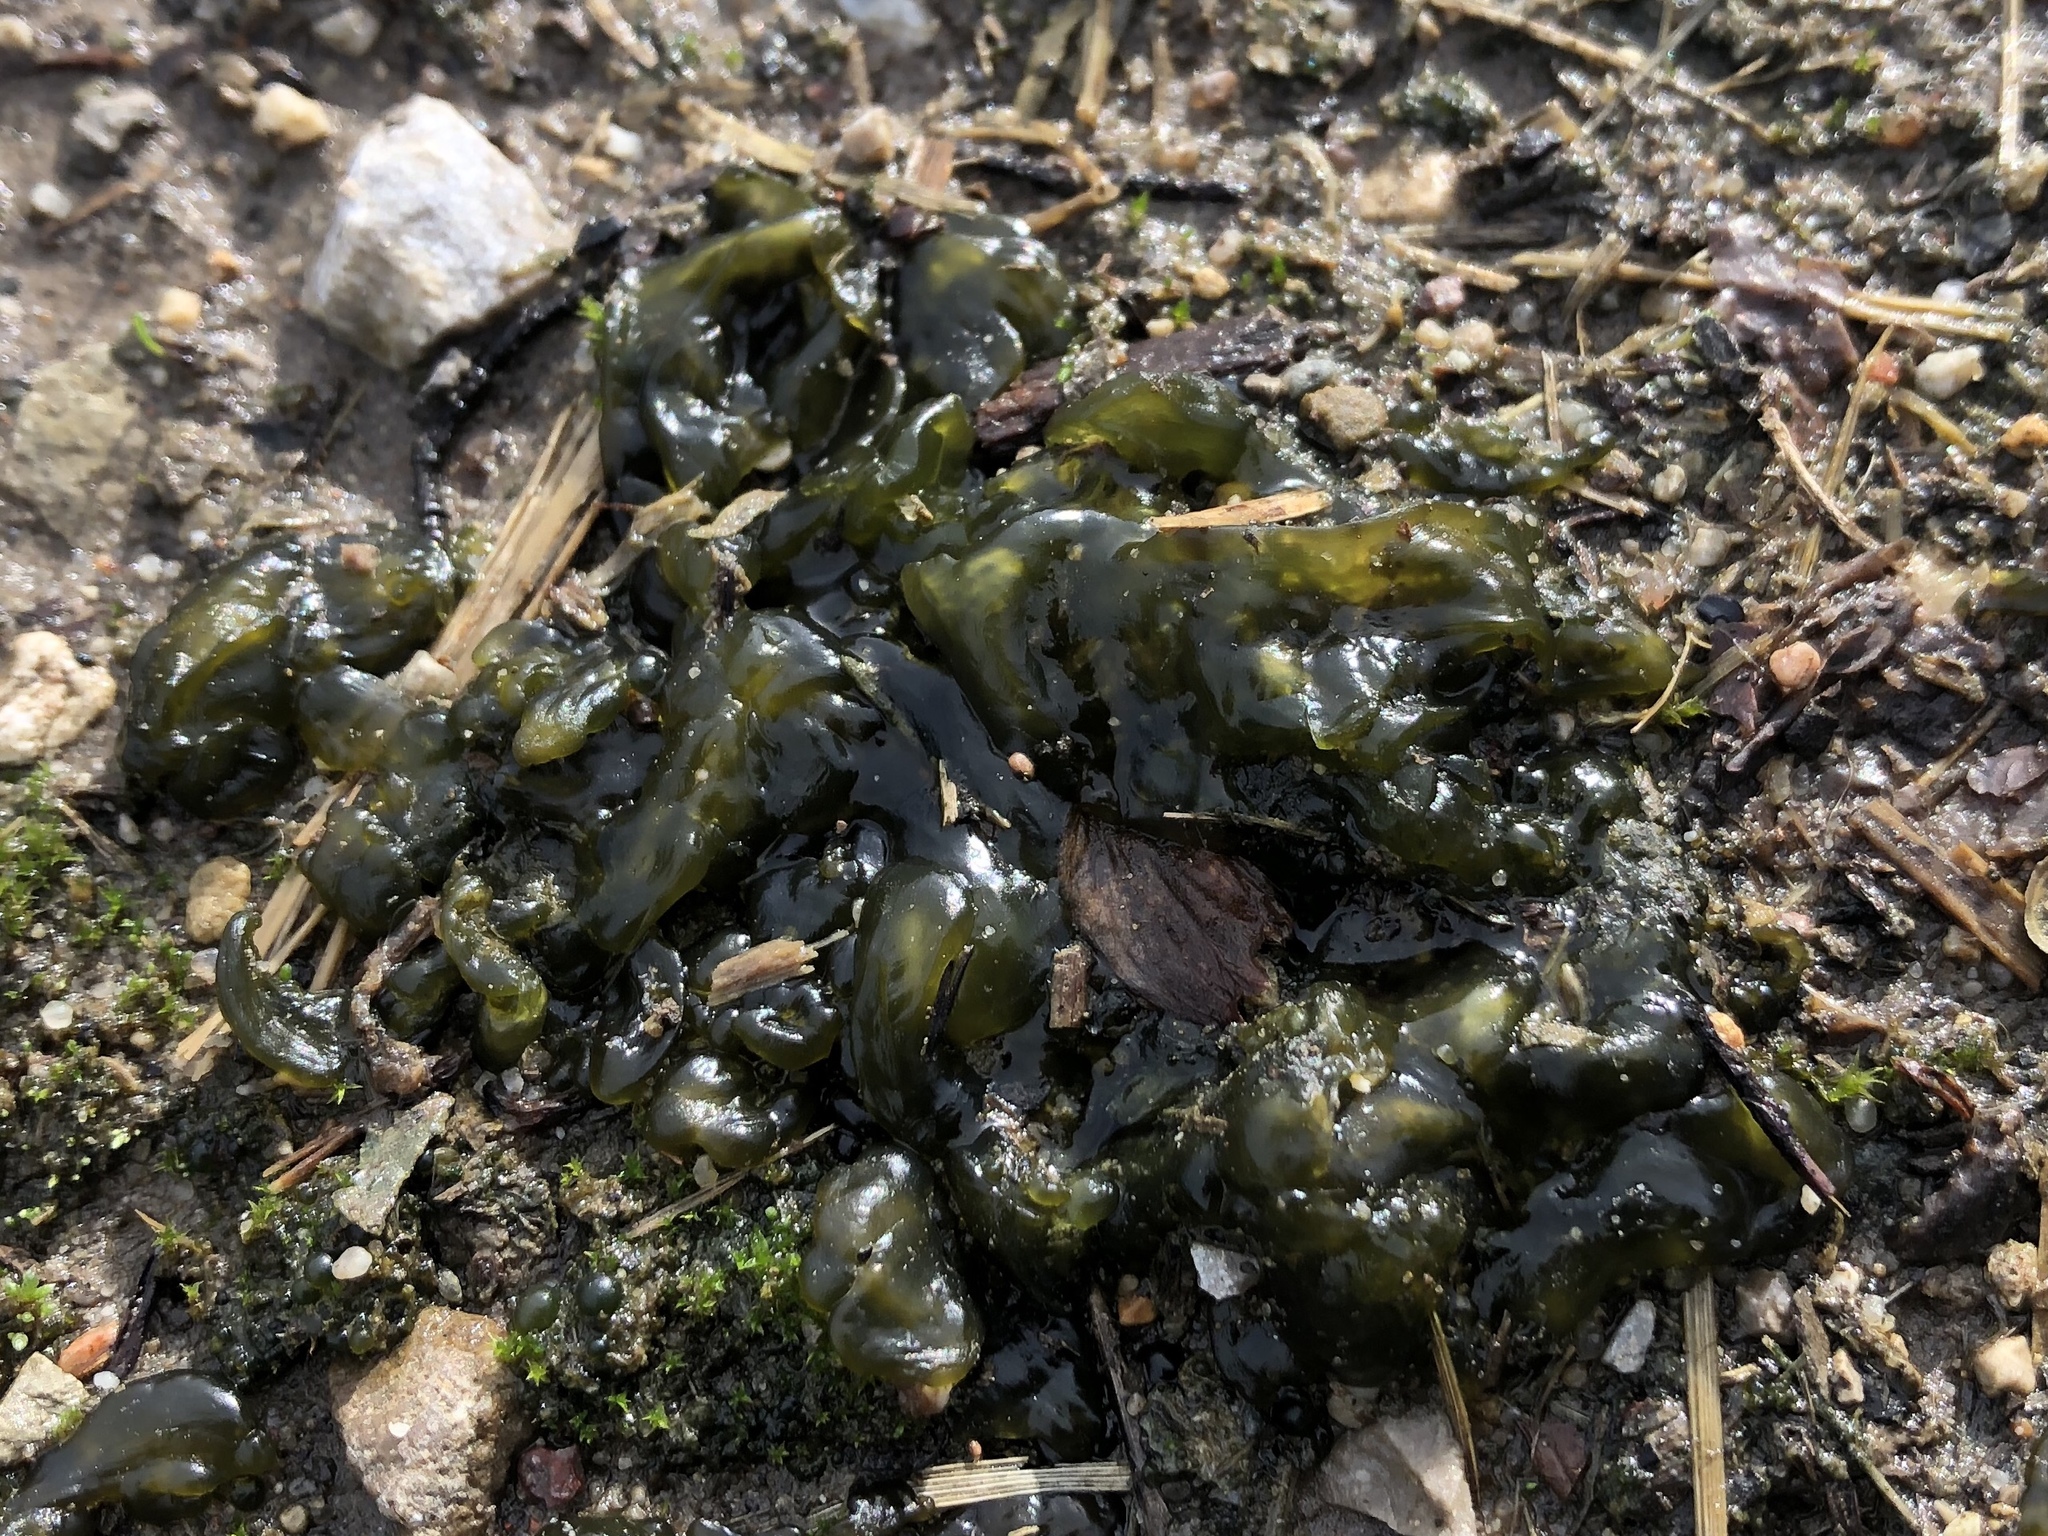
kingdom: Bacteria
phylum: Cyanobacteria
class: Cyanobacteriia
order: Cyanobacteriales
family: Nostocaceae
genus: Nostoc
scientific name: Nostoc commune
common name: Star jelly
